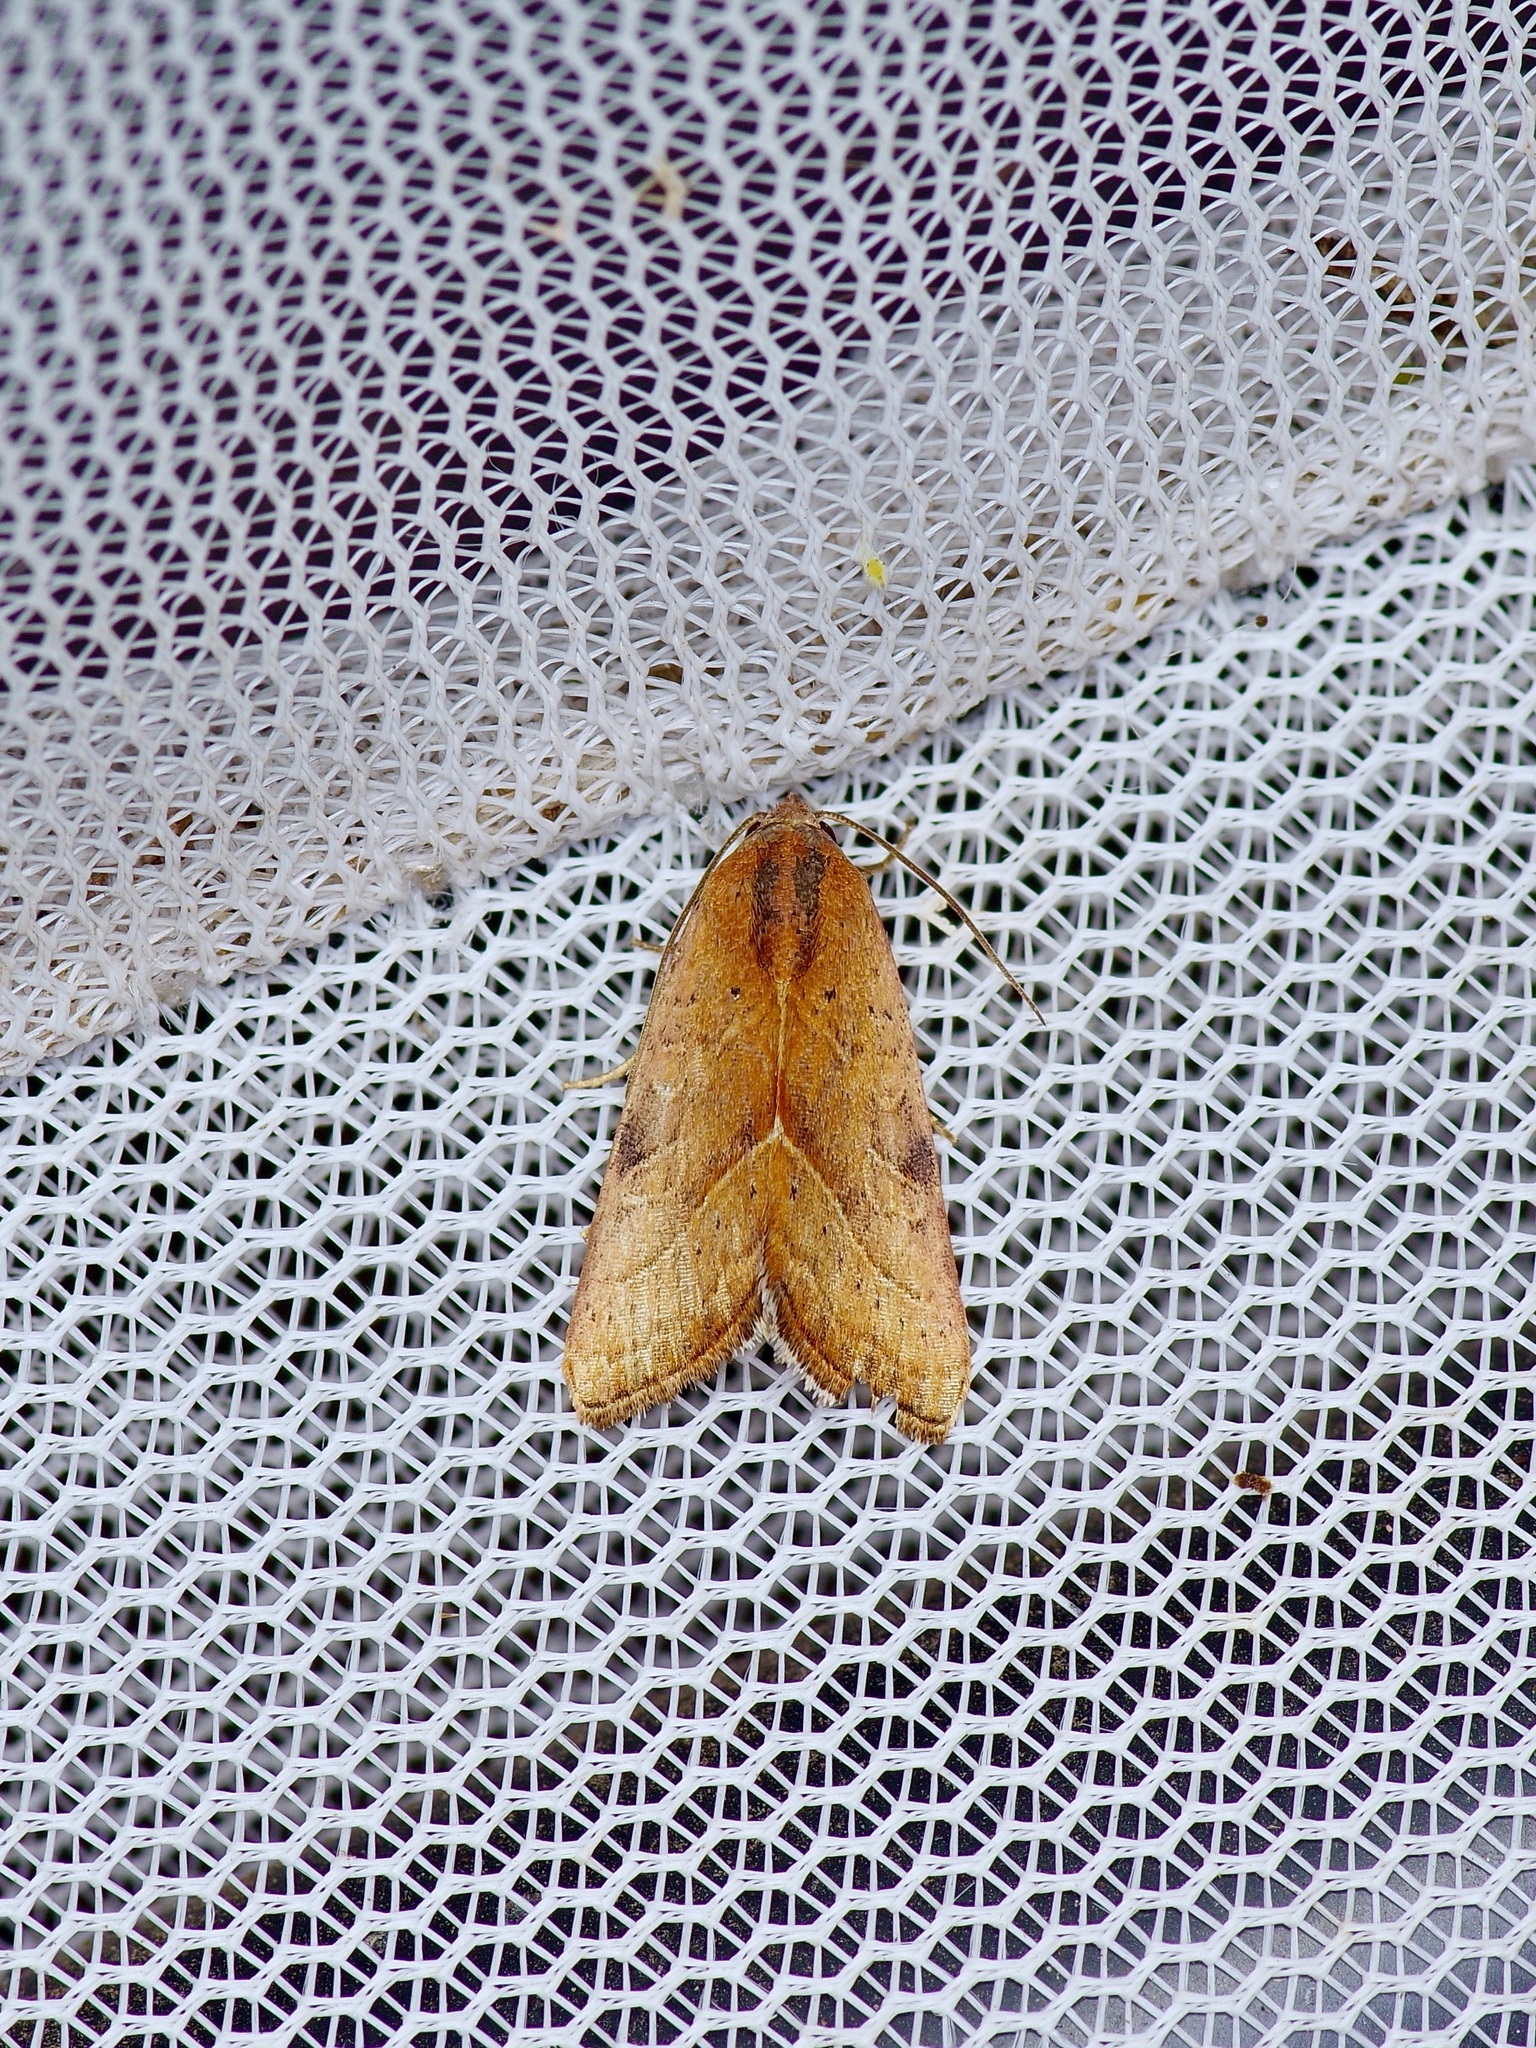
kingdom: Animalia
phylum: Arthropoda
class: Insecta
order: Lepidoptera
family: Noctuidae
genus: Galgula
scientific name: Galgula partita
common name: Wedgeling
